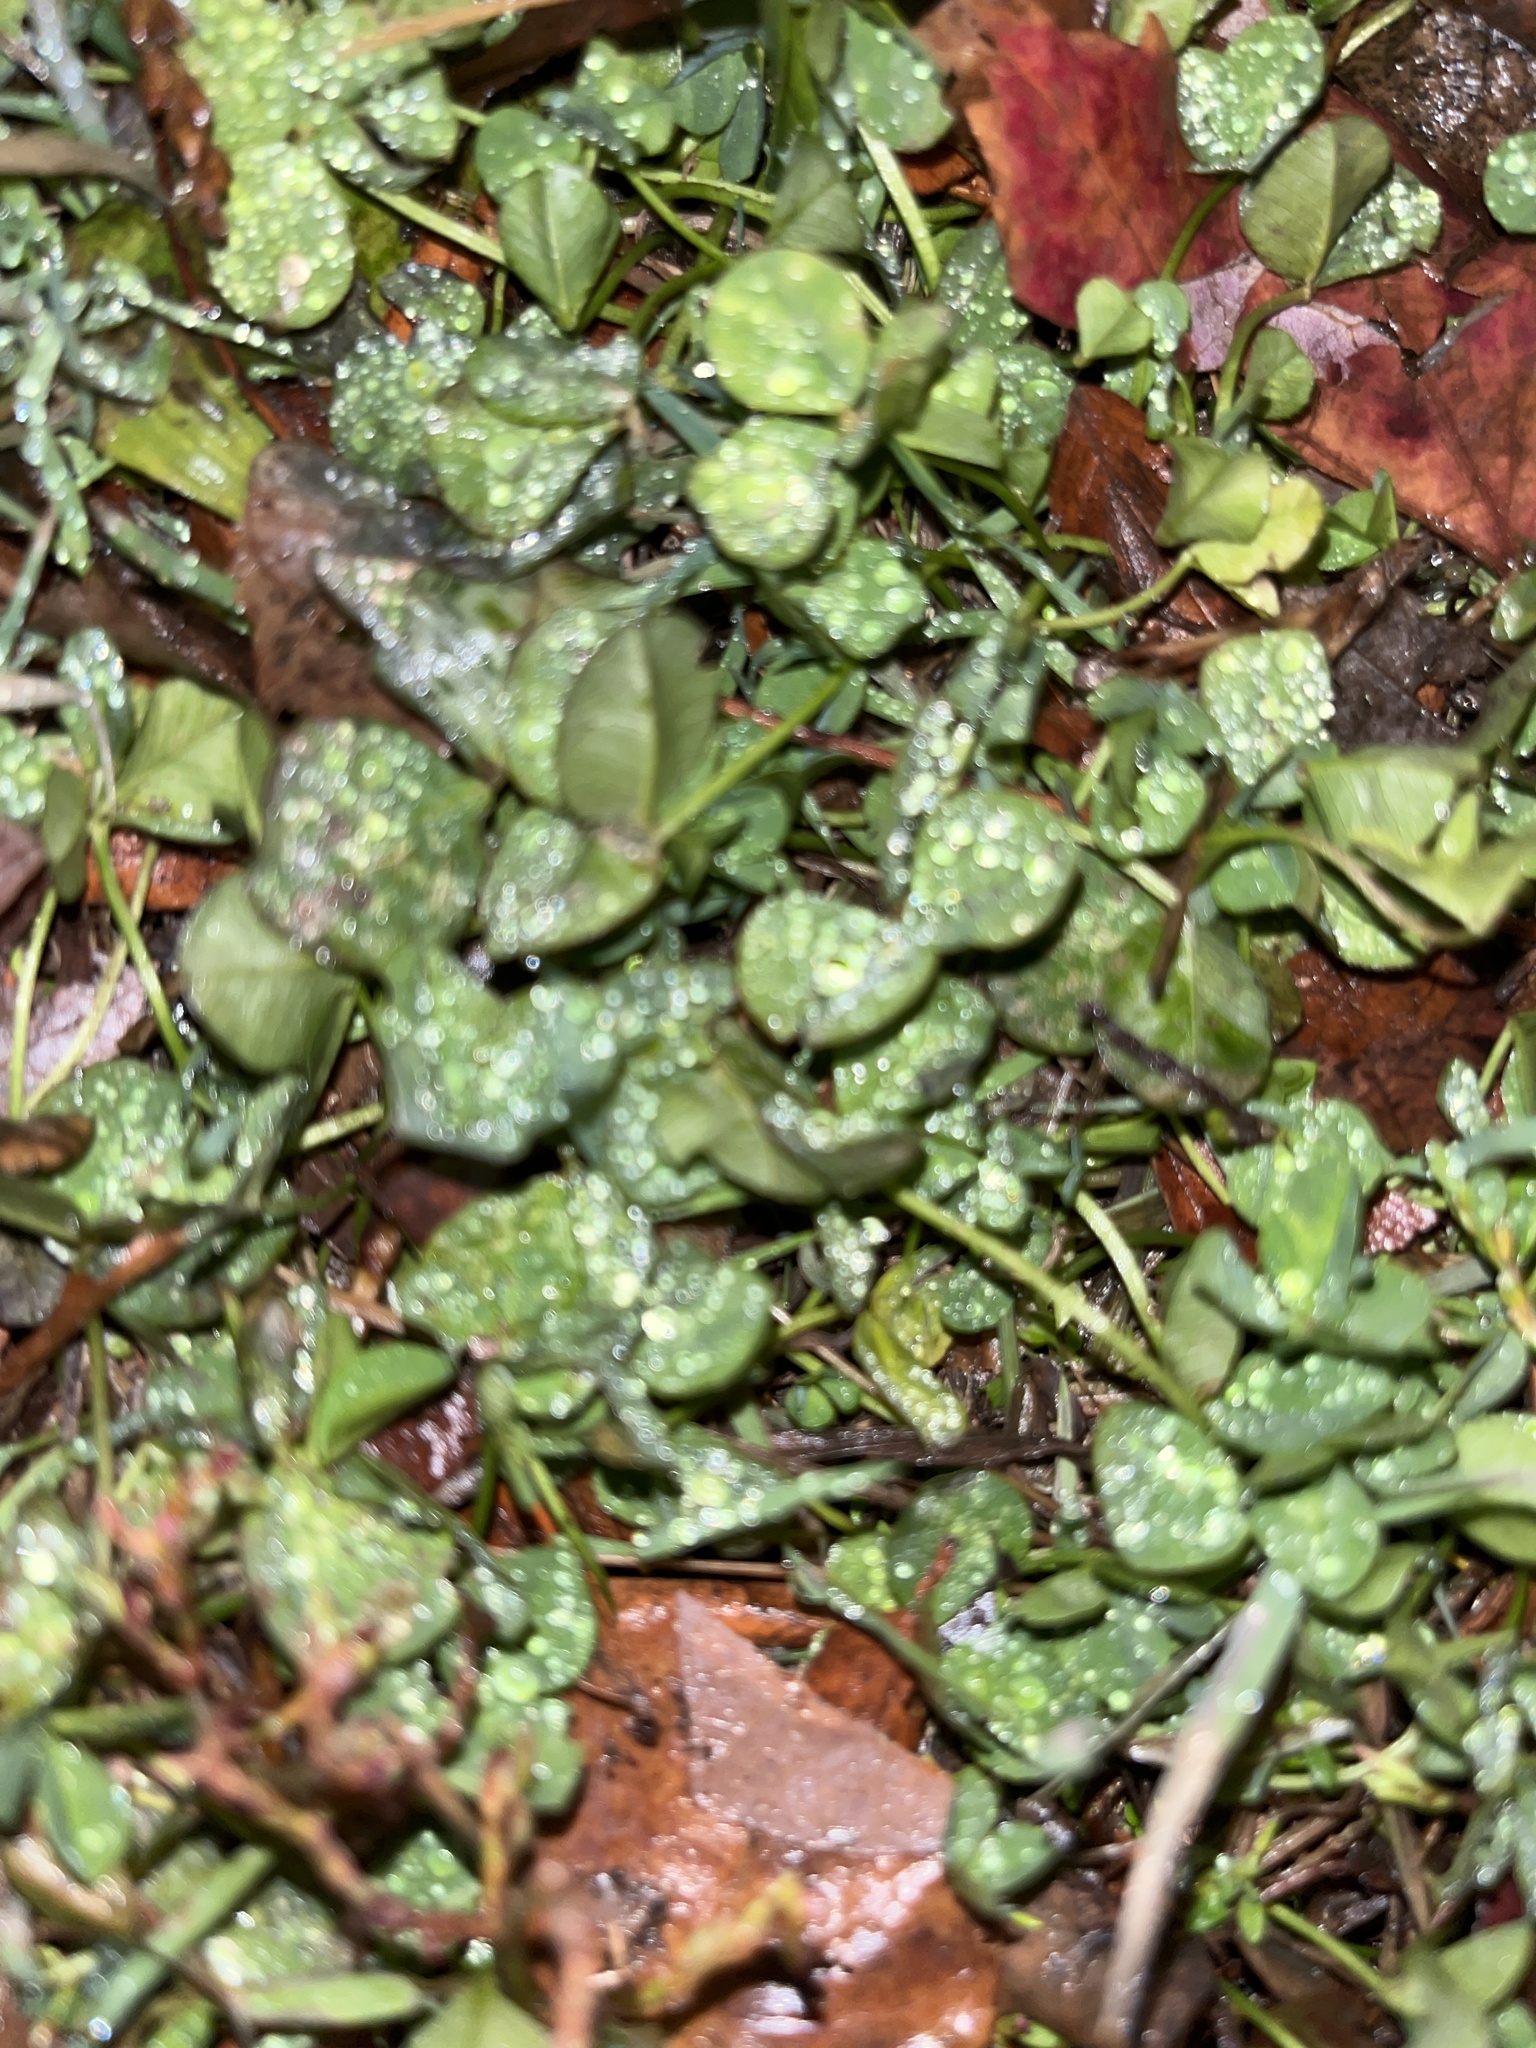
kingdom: Plantae
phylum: Tracheophyta
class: Magnoliopsida
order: Fabales
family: Fabaceae
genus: Trifolium
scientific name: Trifolium repens
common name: White clover
